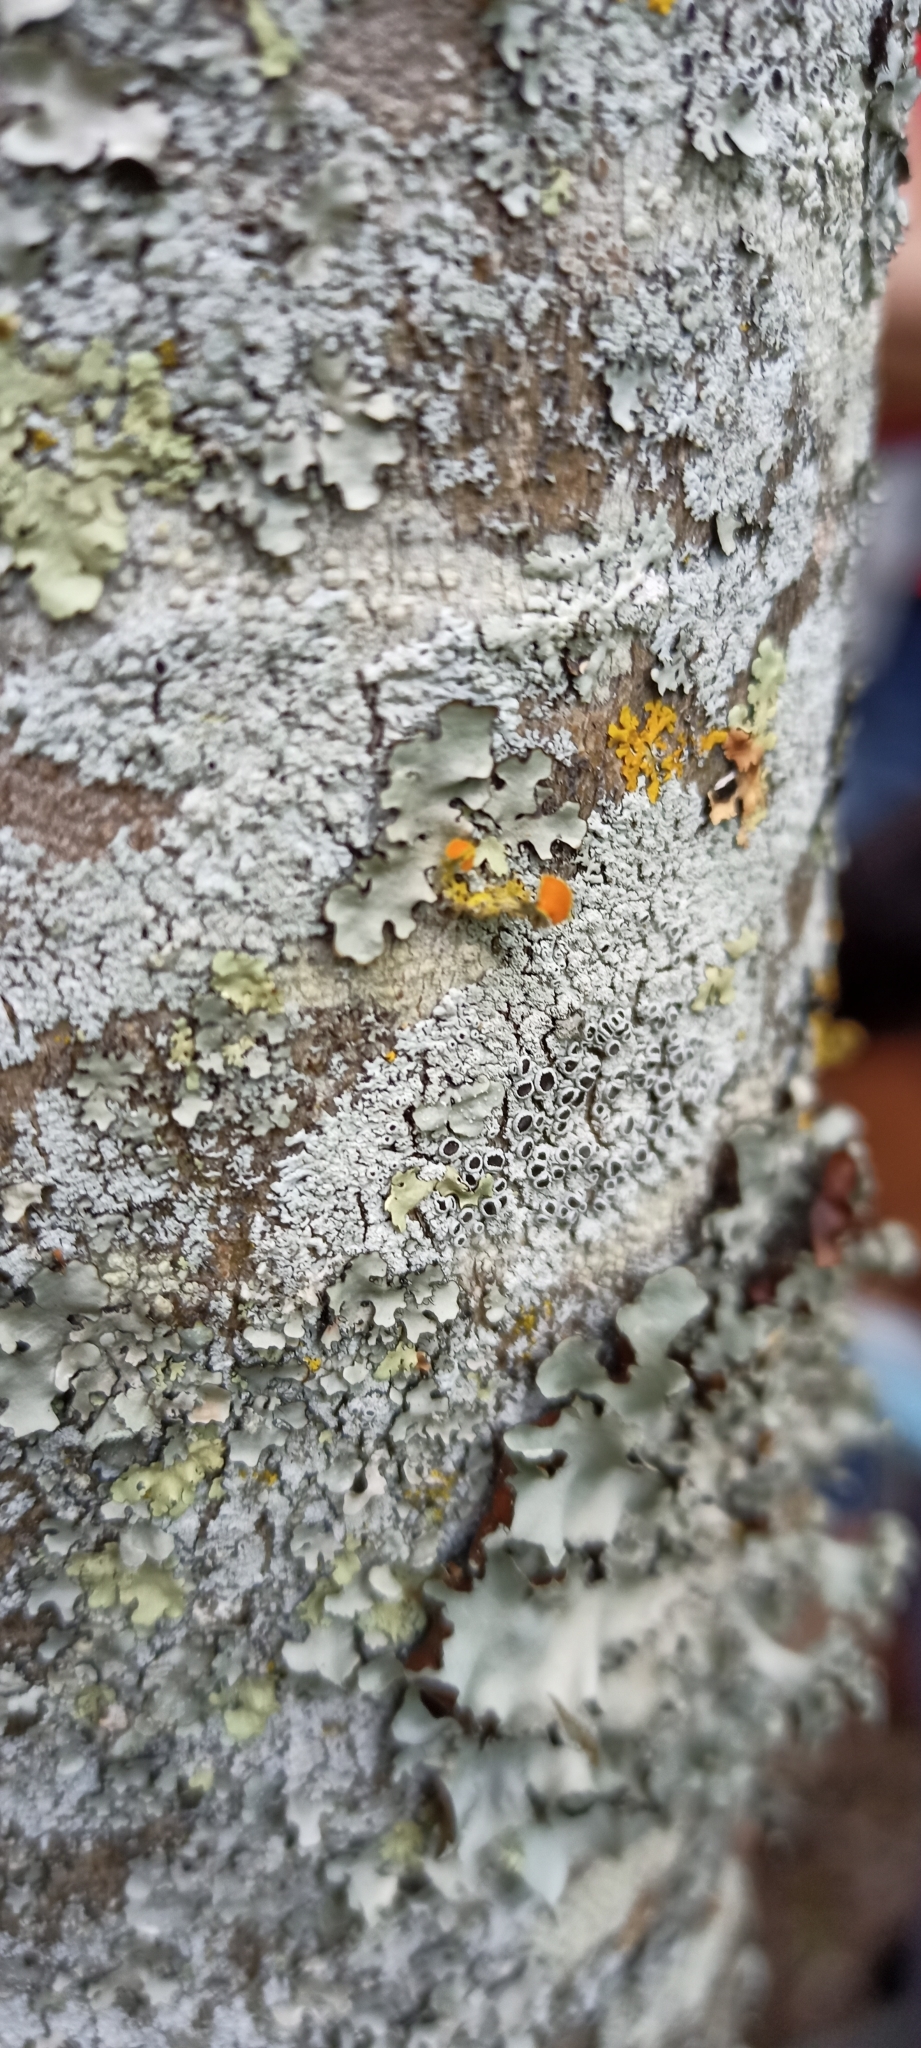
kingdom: Fungi
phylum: Ascomycota
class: Lecanoromycetes
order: Teloschistales
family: Teloschistaceae
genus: Niorma
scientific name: Niorma chrysophthalma
